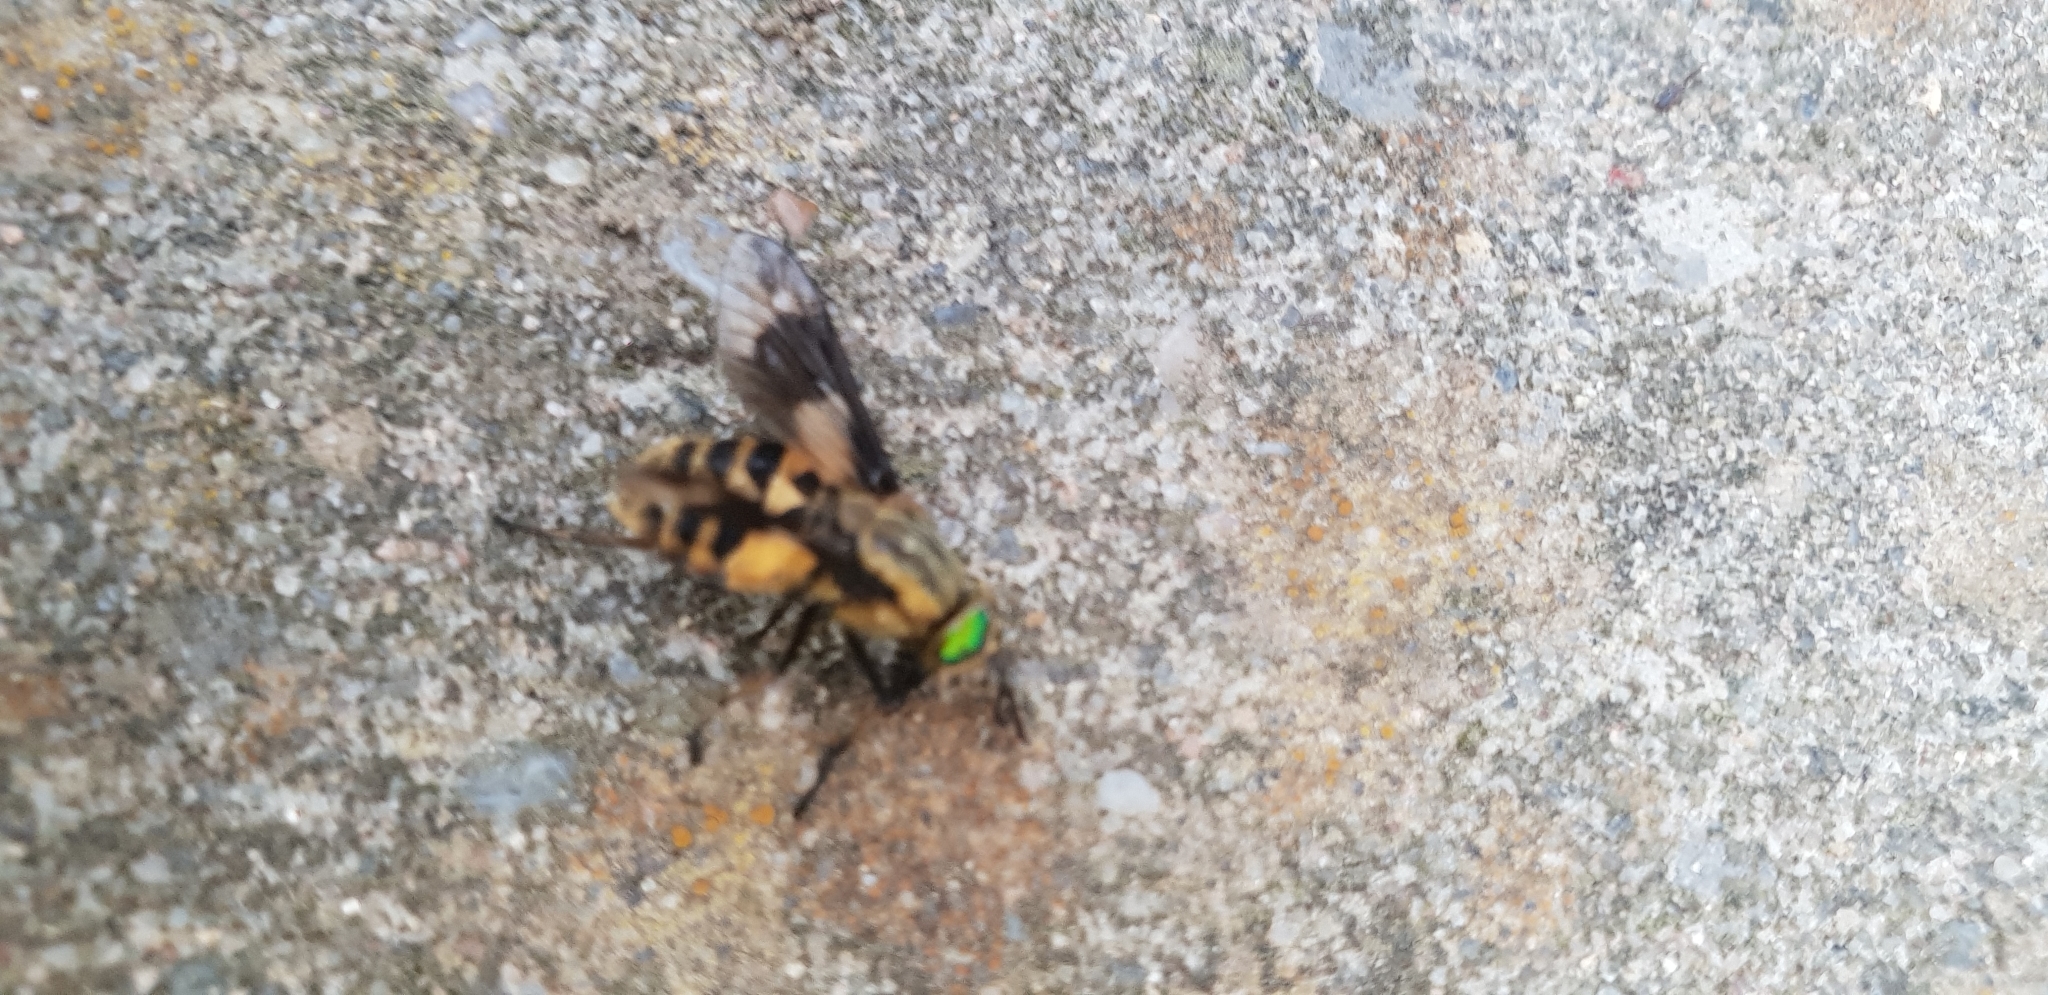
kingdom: Animalia
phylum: Arthropoda
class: Insecta
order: Diptera
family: Tabanidae
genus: Chrysops
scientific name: Chrysops relictus
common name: Twin-lobed deerfly
